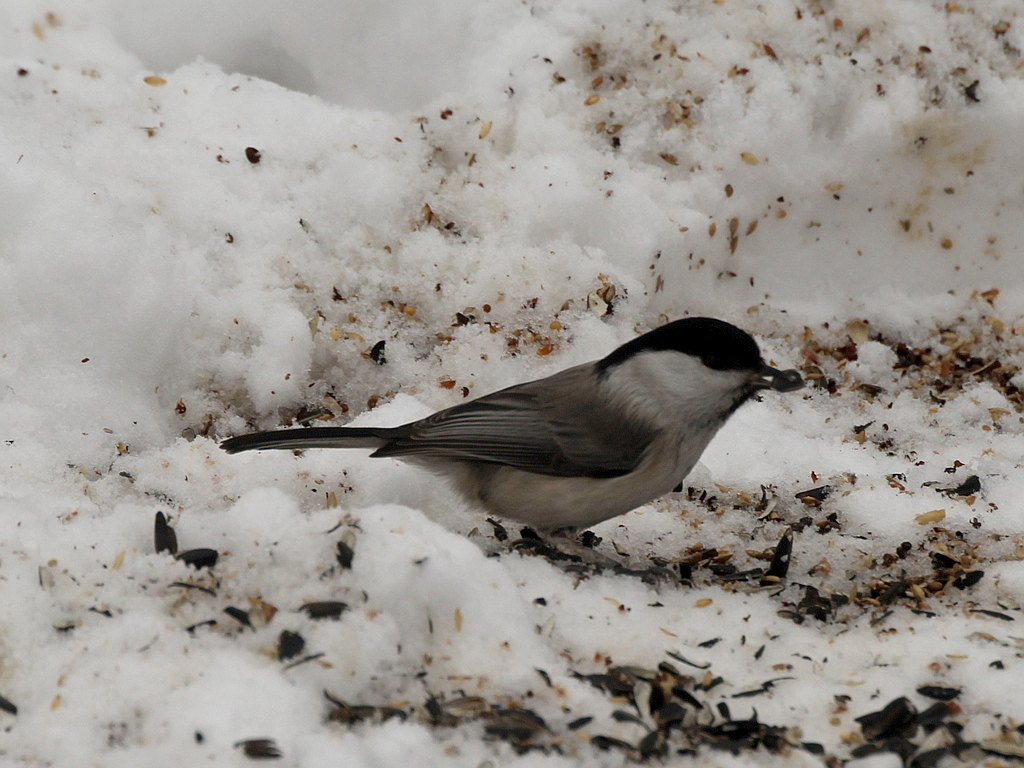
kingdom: Animalia
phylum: Chordata
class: Aves
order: Passeriformes
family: Paridae
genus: Poecile
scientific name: Poecile montanus
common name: Willow tit
